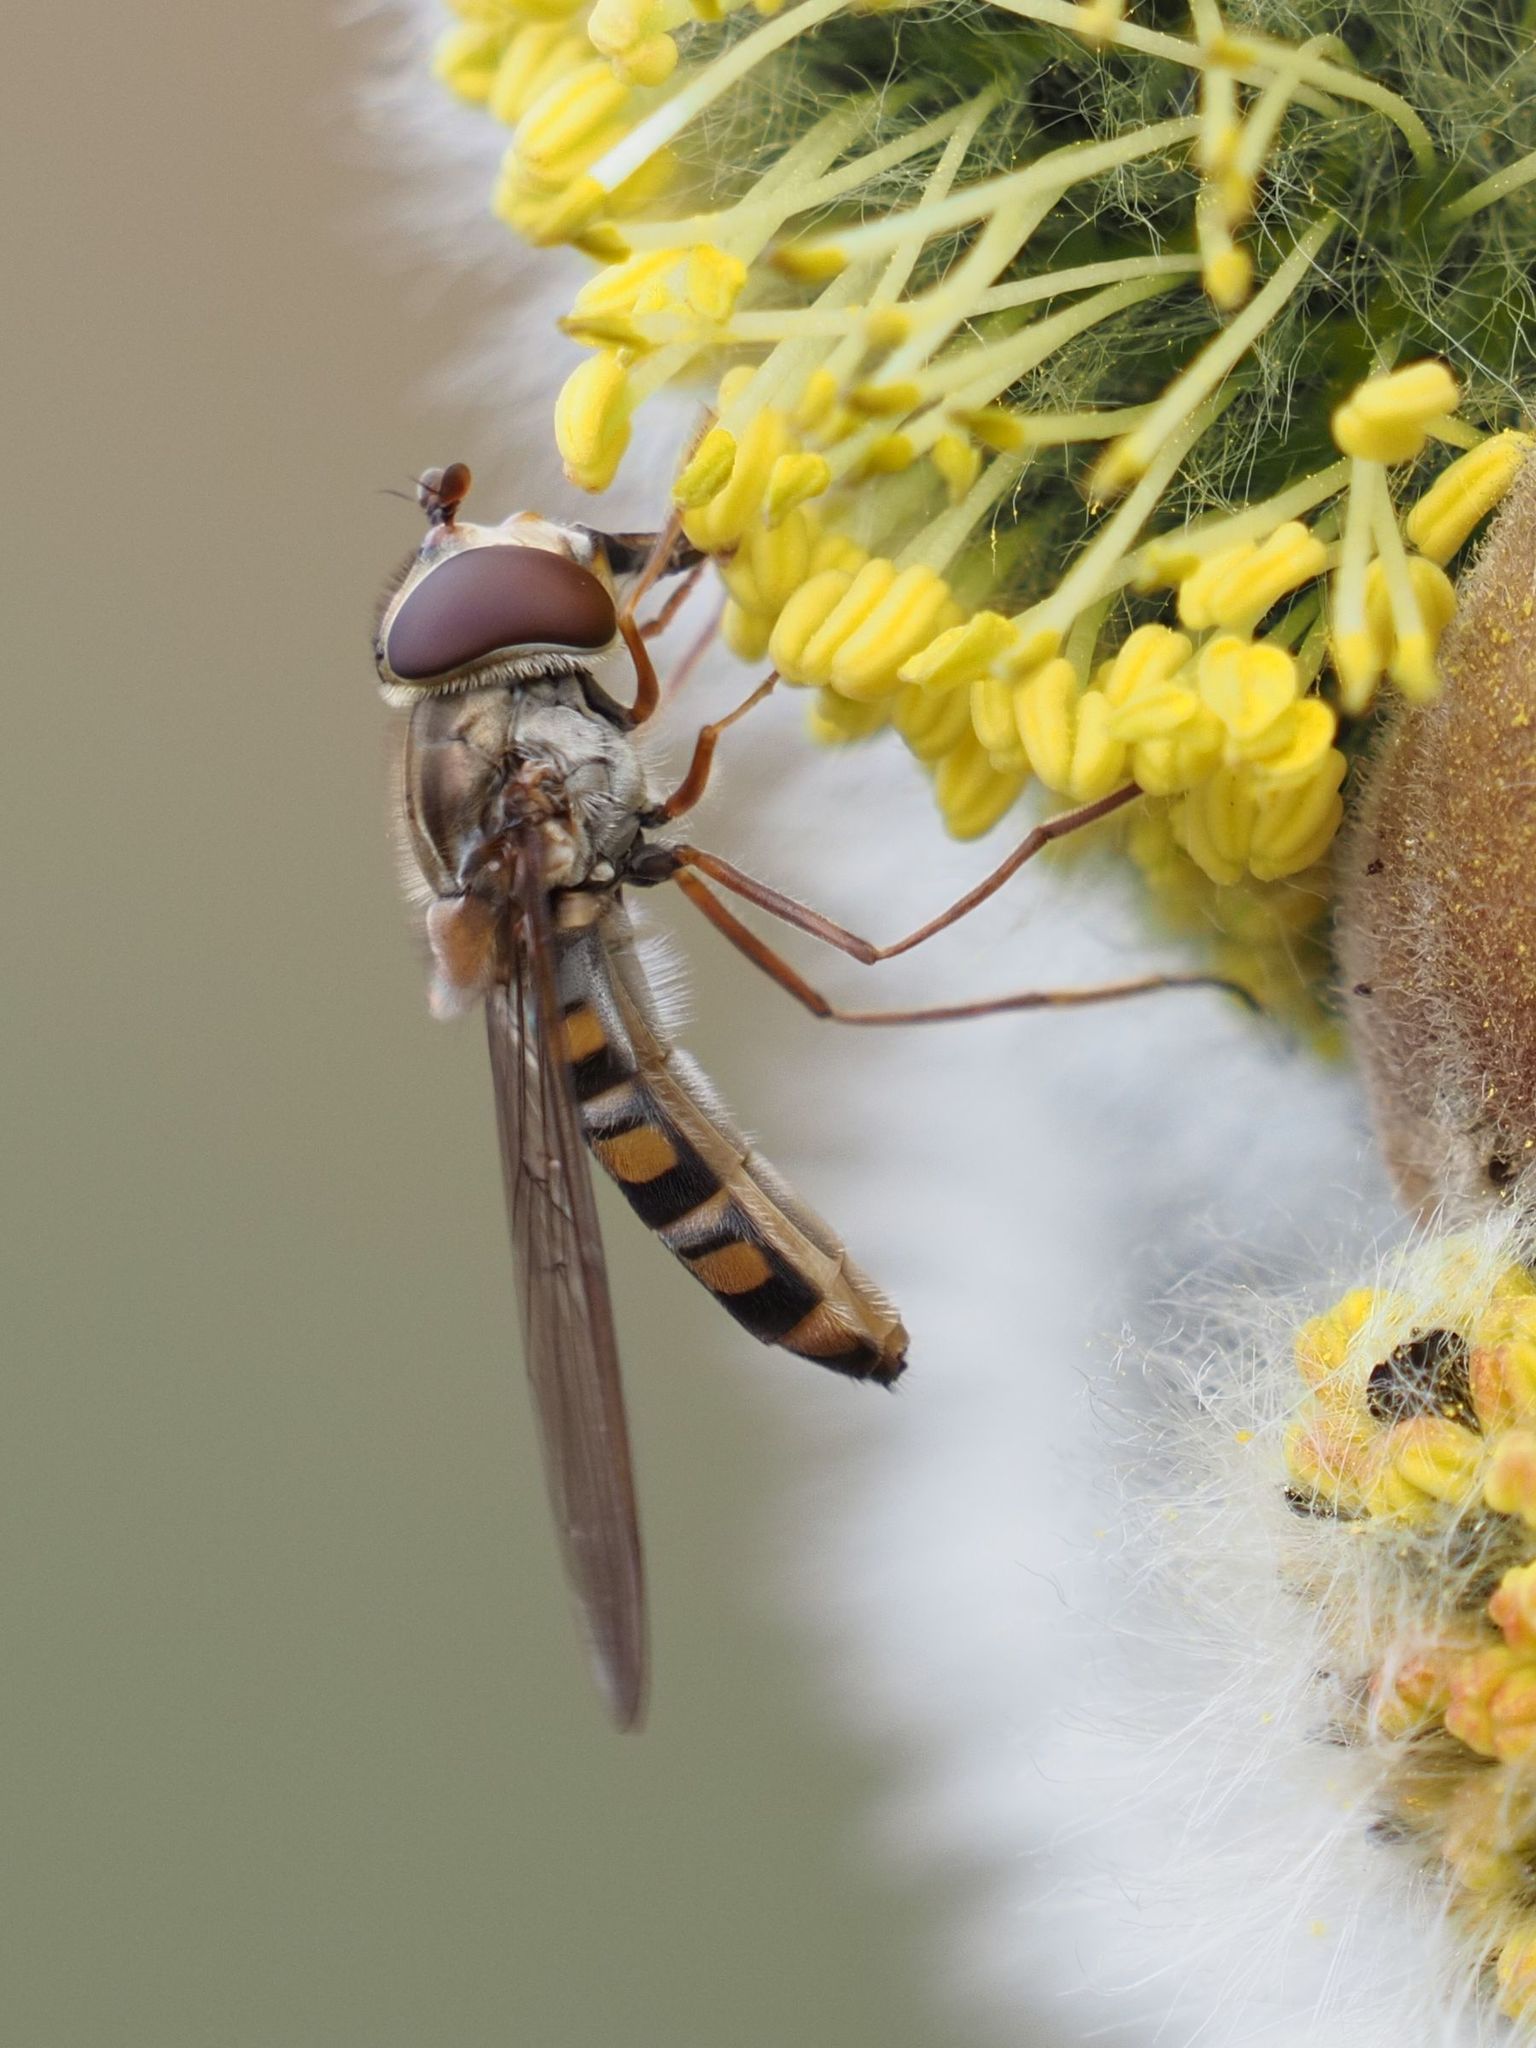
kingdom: Animalia
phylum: Arthropoda
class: Insecta
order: Diptera
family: Syrphidae
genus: Episyrphus
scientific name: Episyrphus balteatus
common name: Marmalade hoverfly
